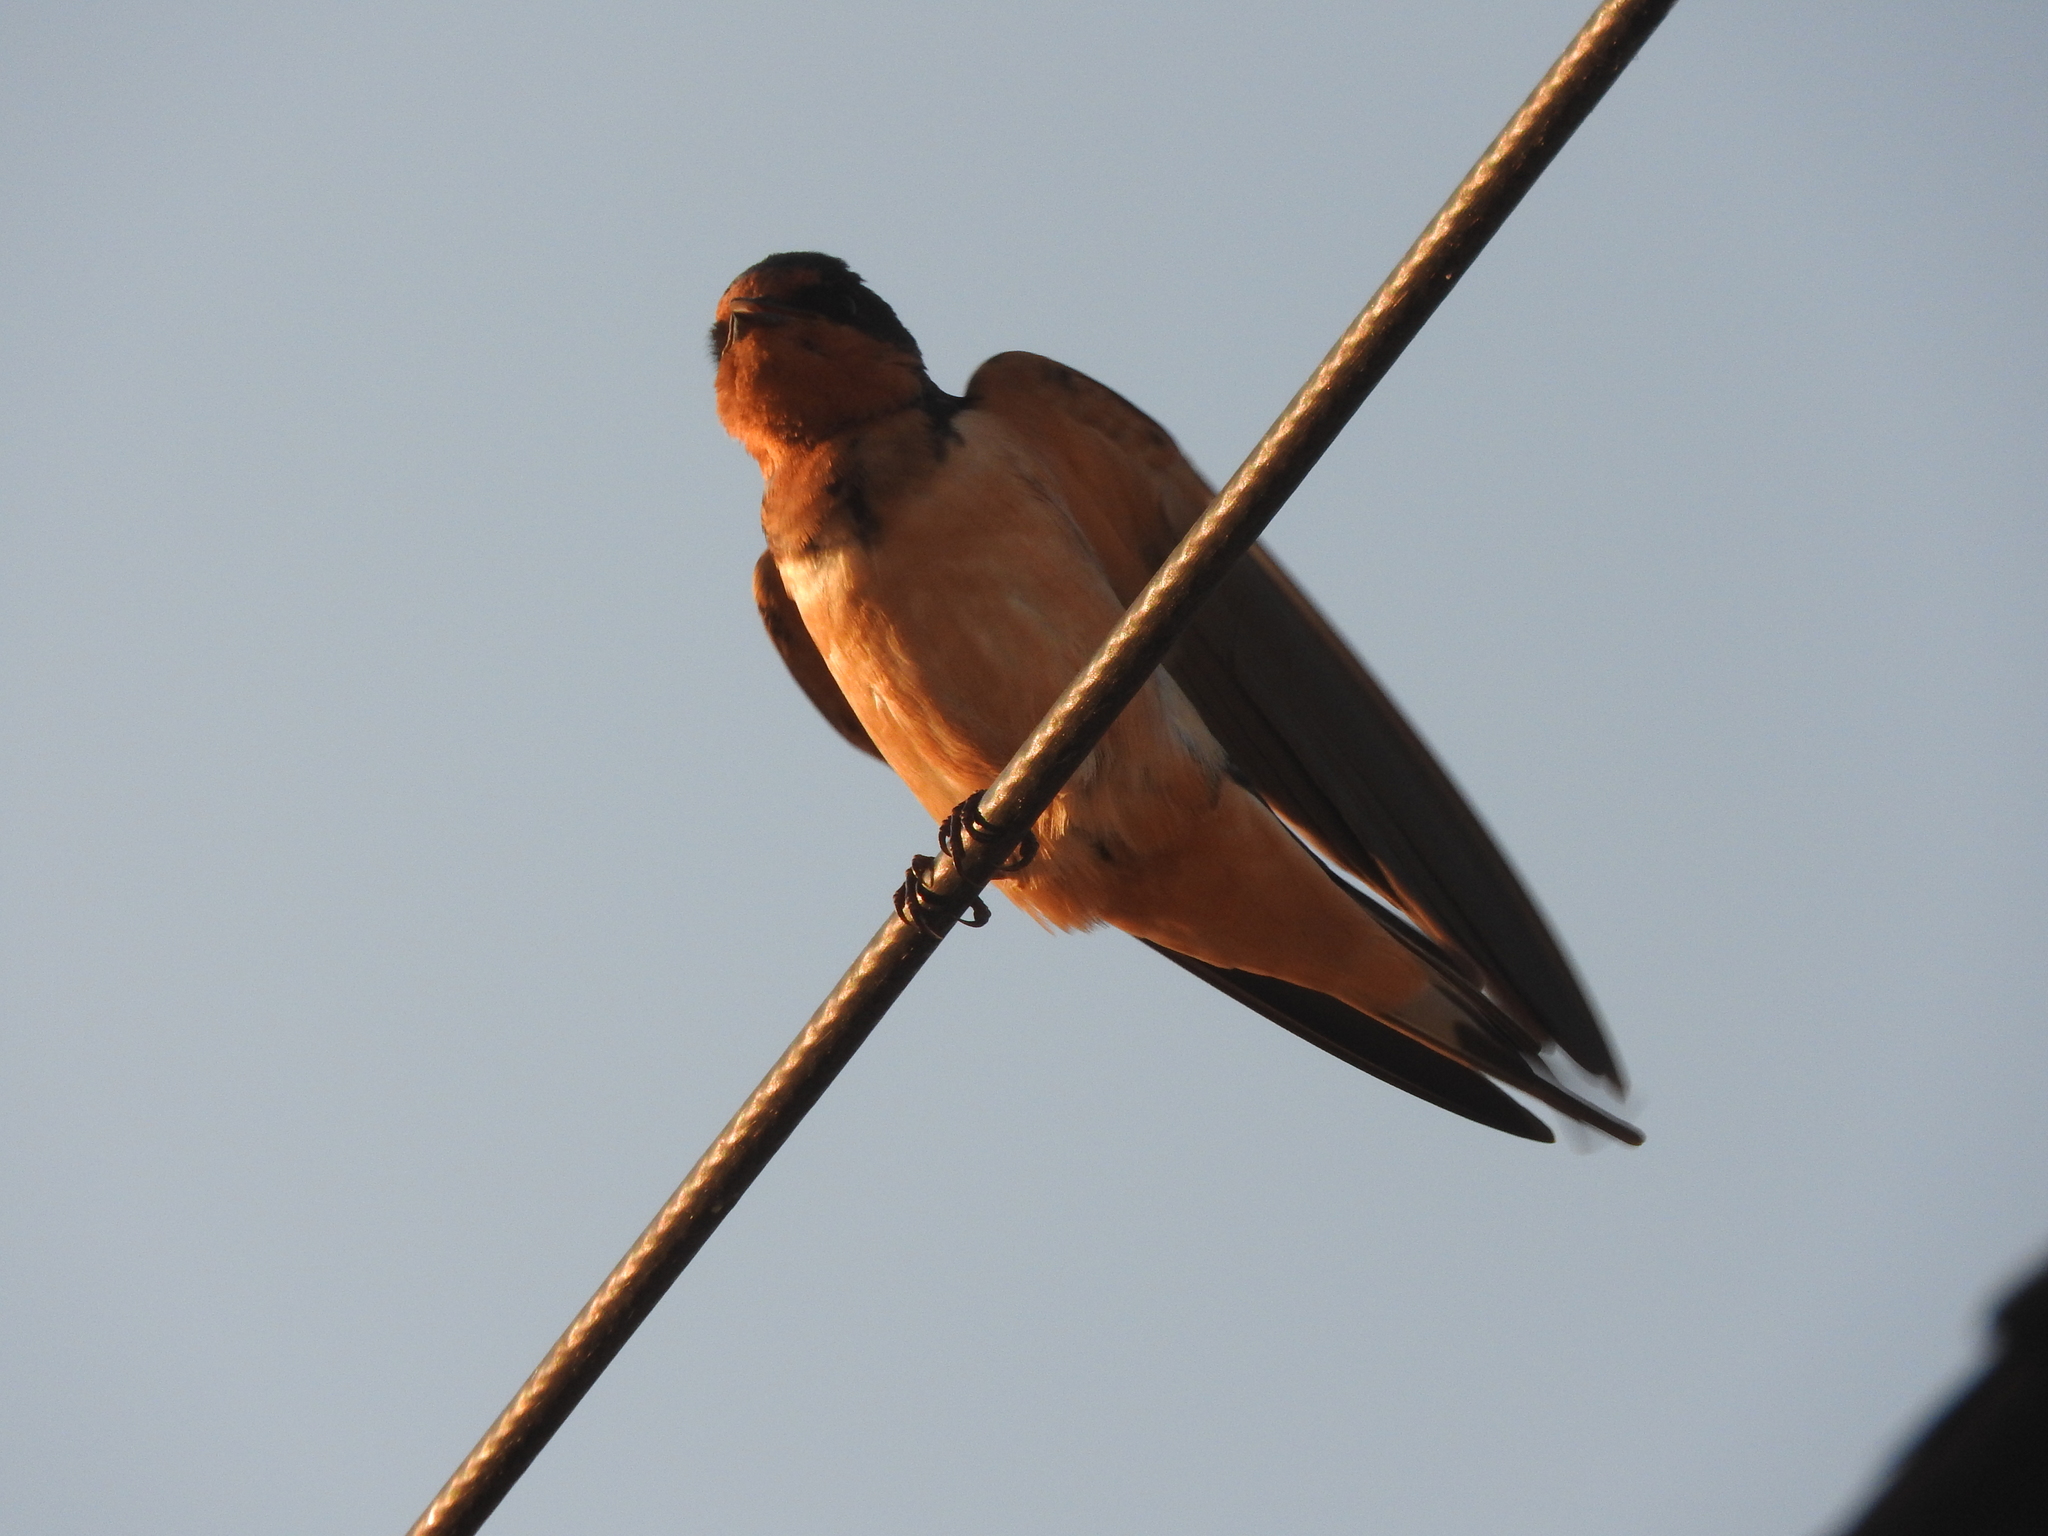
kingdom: Animalia
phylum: Chordata
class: Aves
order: Passeriformes
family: Hirundinidae
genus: Hirundo
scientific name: Hirundo rustica
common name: Barn swallow
